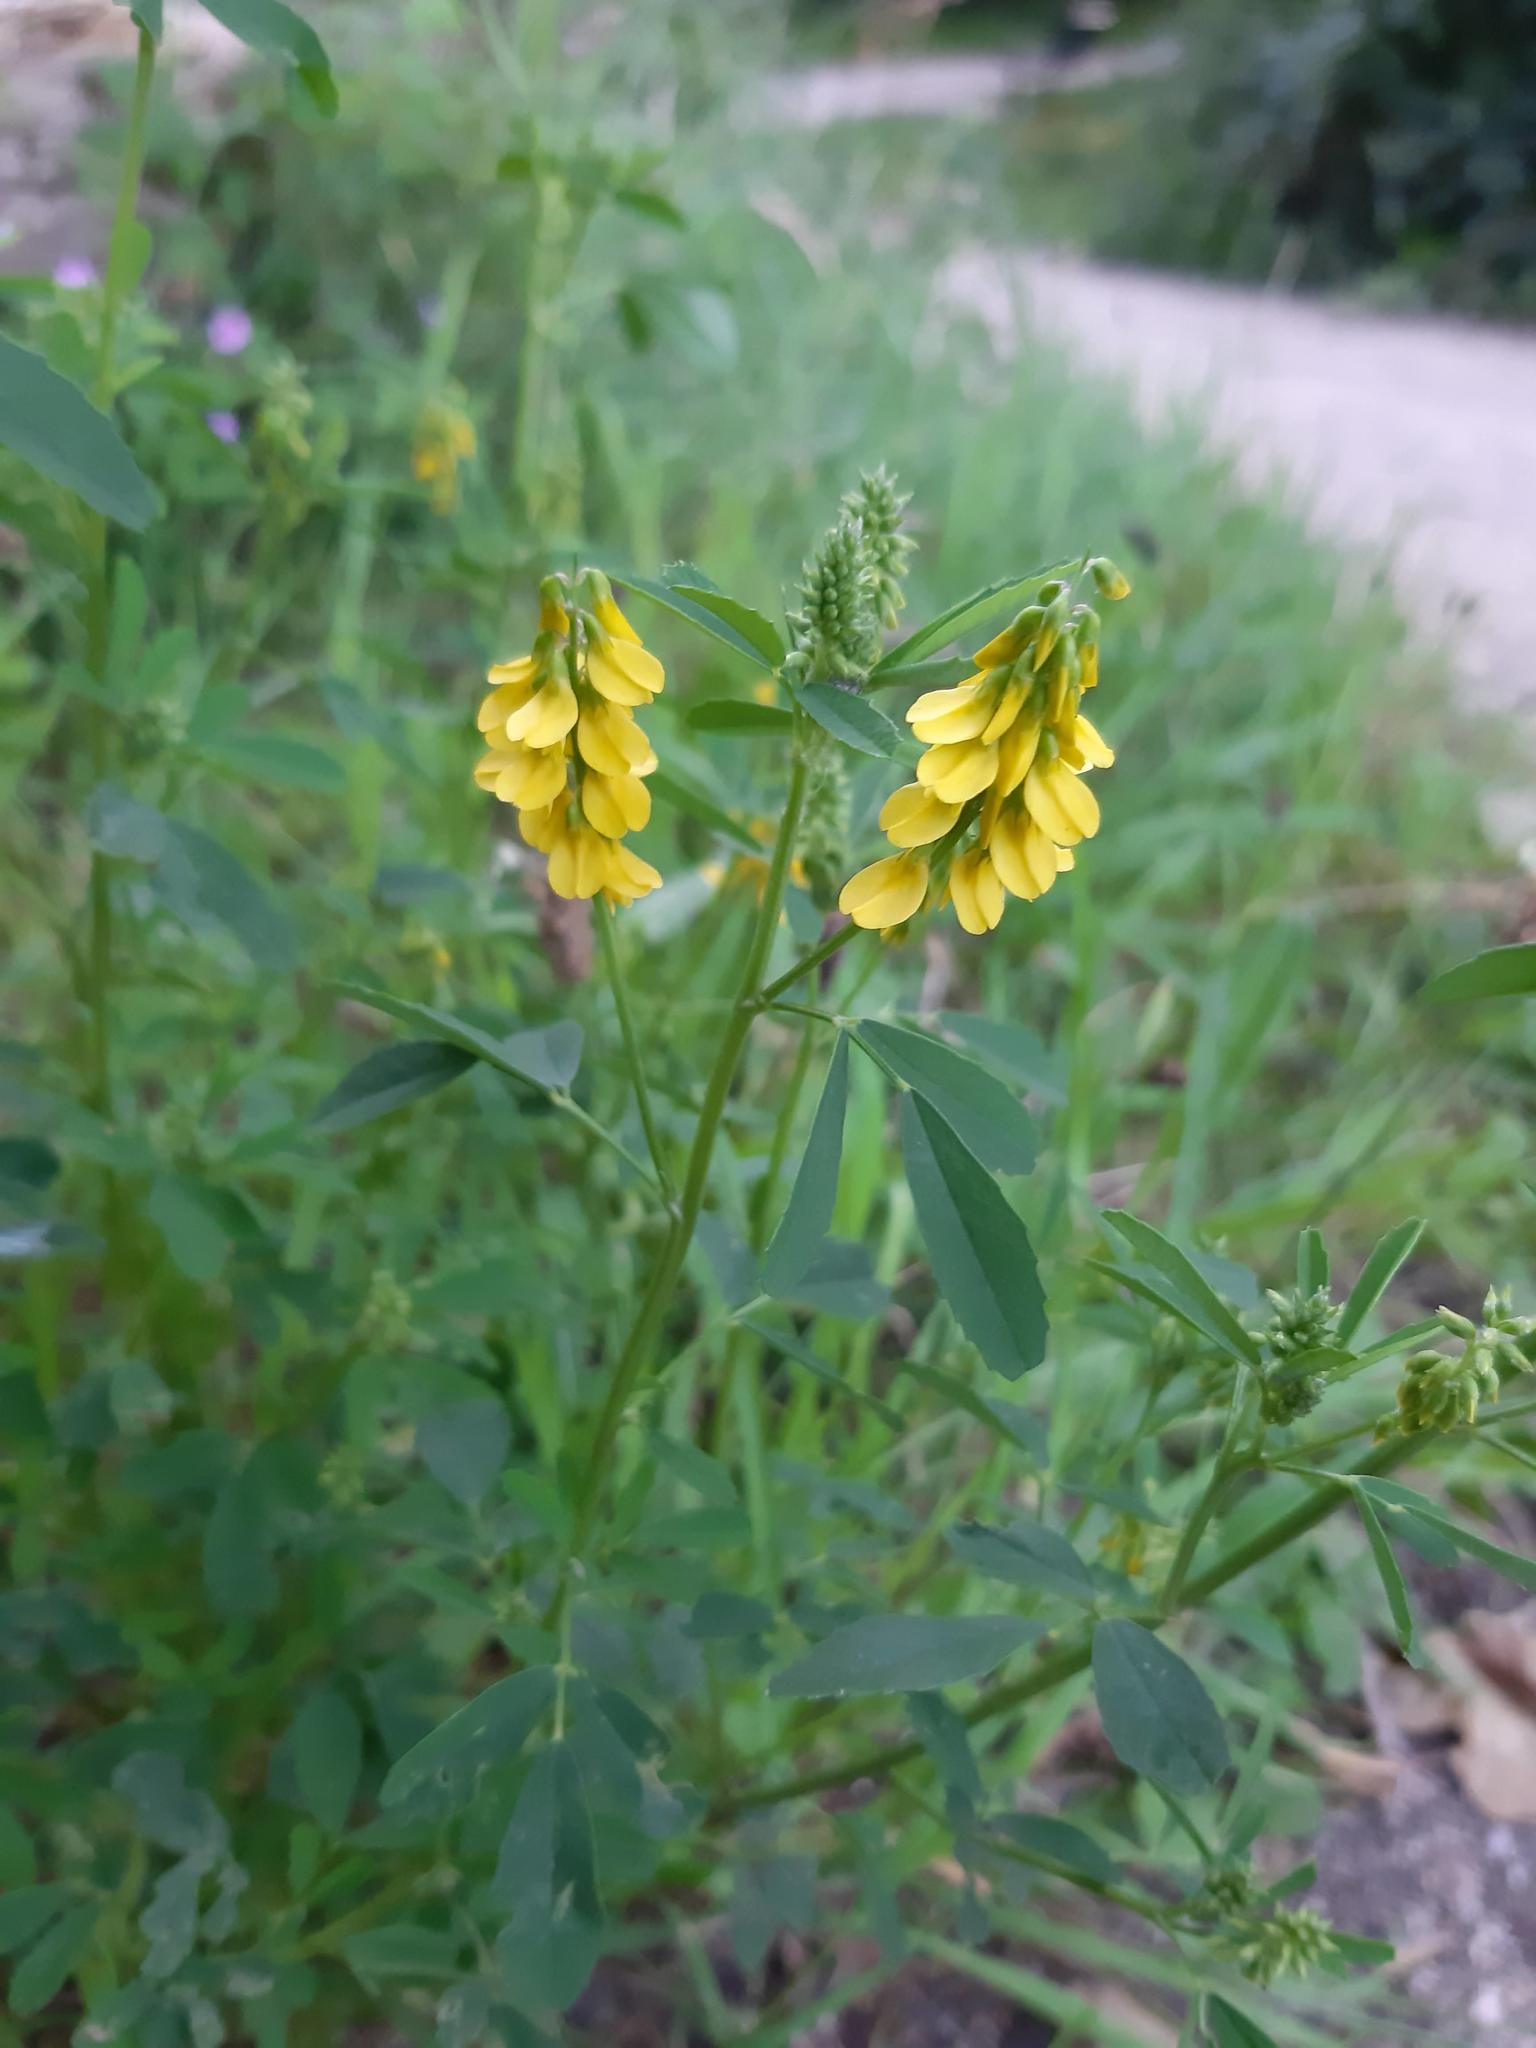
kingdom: Plantae
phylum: Tracheophyta
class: Magnoliopsida
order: Fabales
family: Fabaceae
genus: Melilotus
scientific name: Melilotus officinalis
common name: Sweetclover
